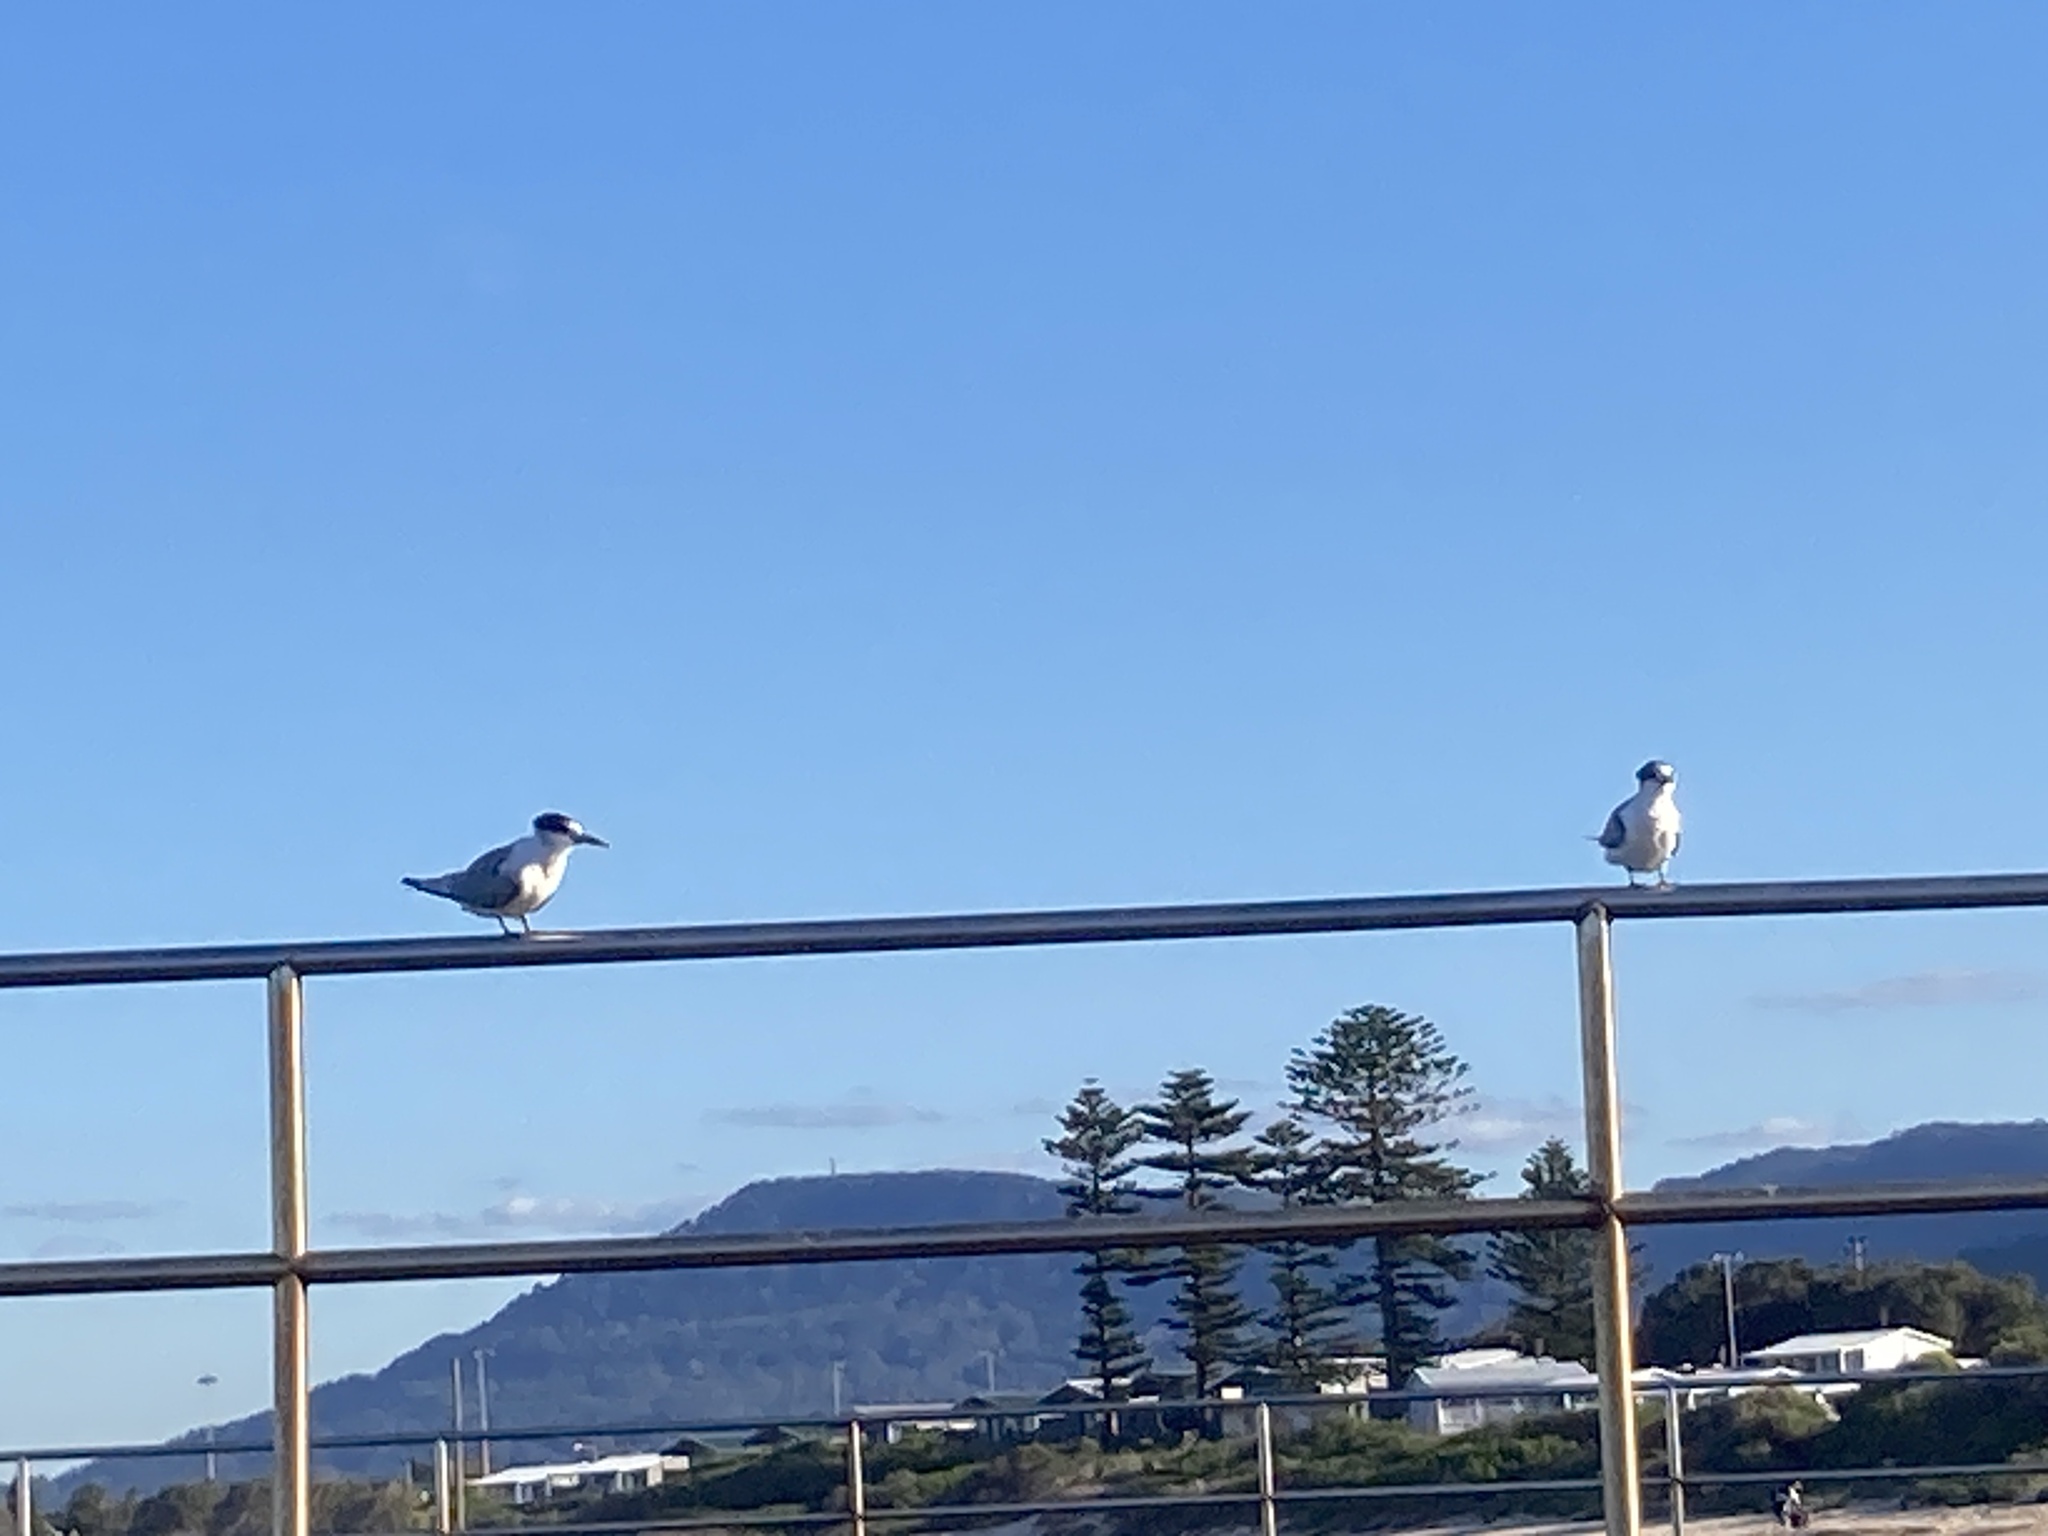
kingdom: Animalia
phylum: Chordata
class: Aves
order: Charadriiformes
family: Laridae
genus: Thalasseus
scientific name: Thalasseus bergii
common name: Greater crested tern
